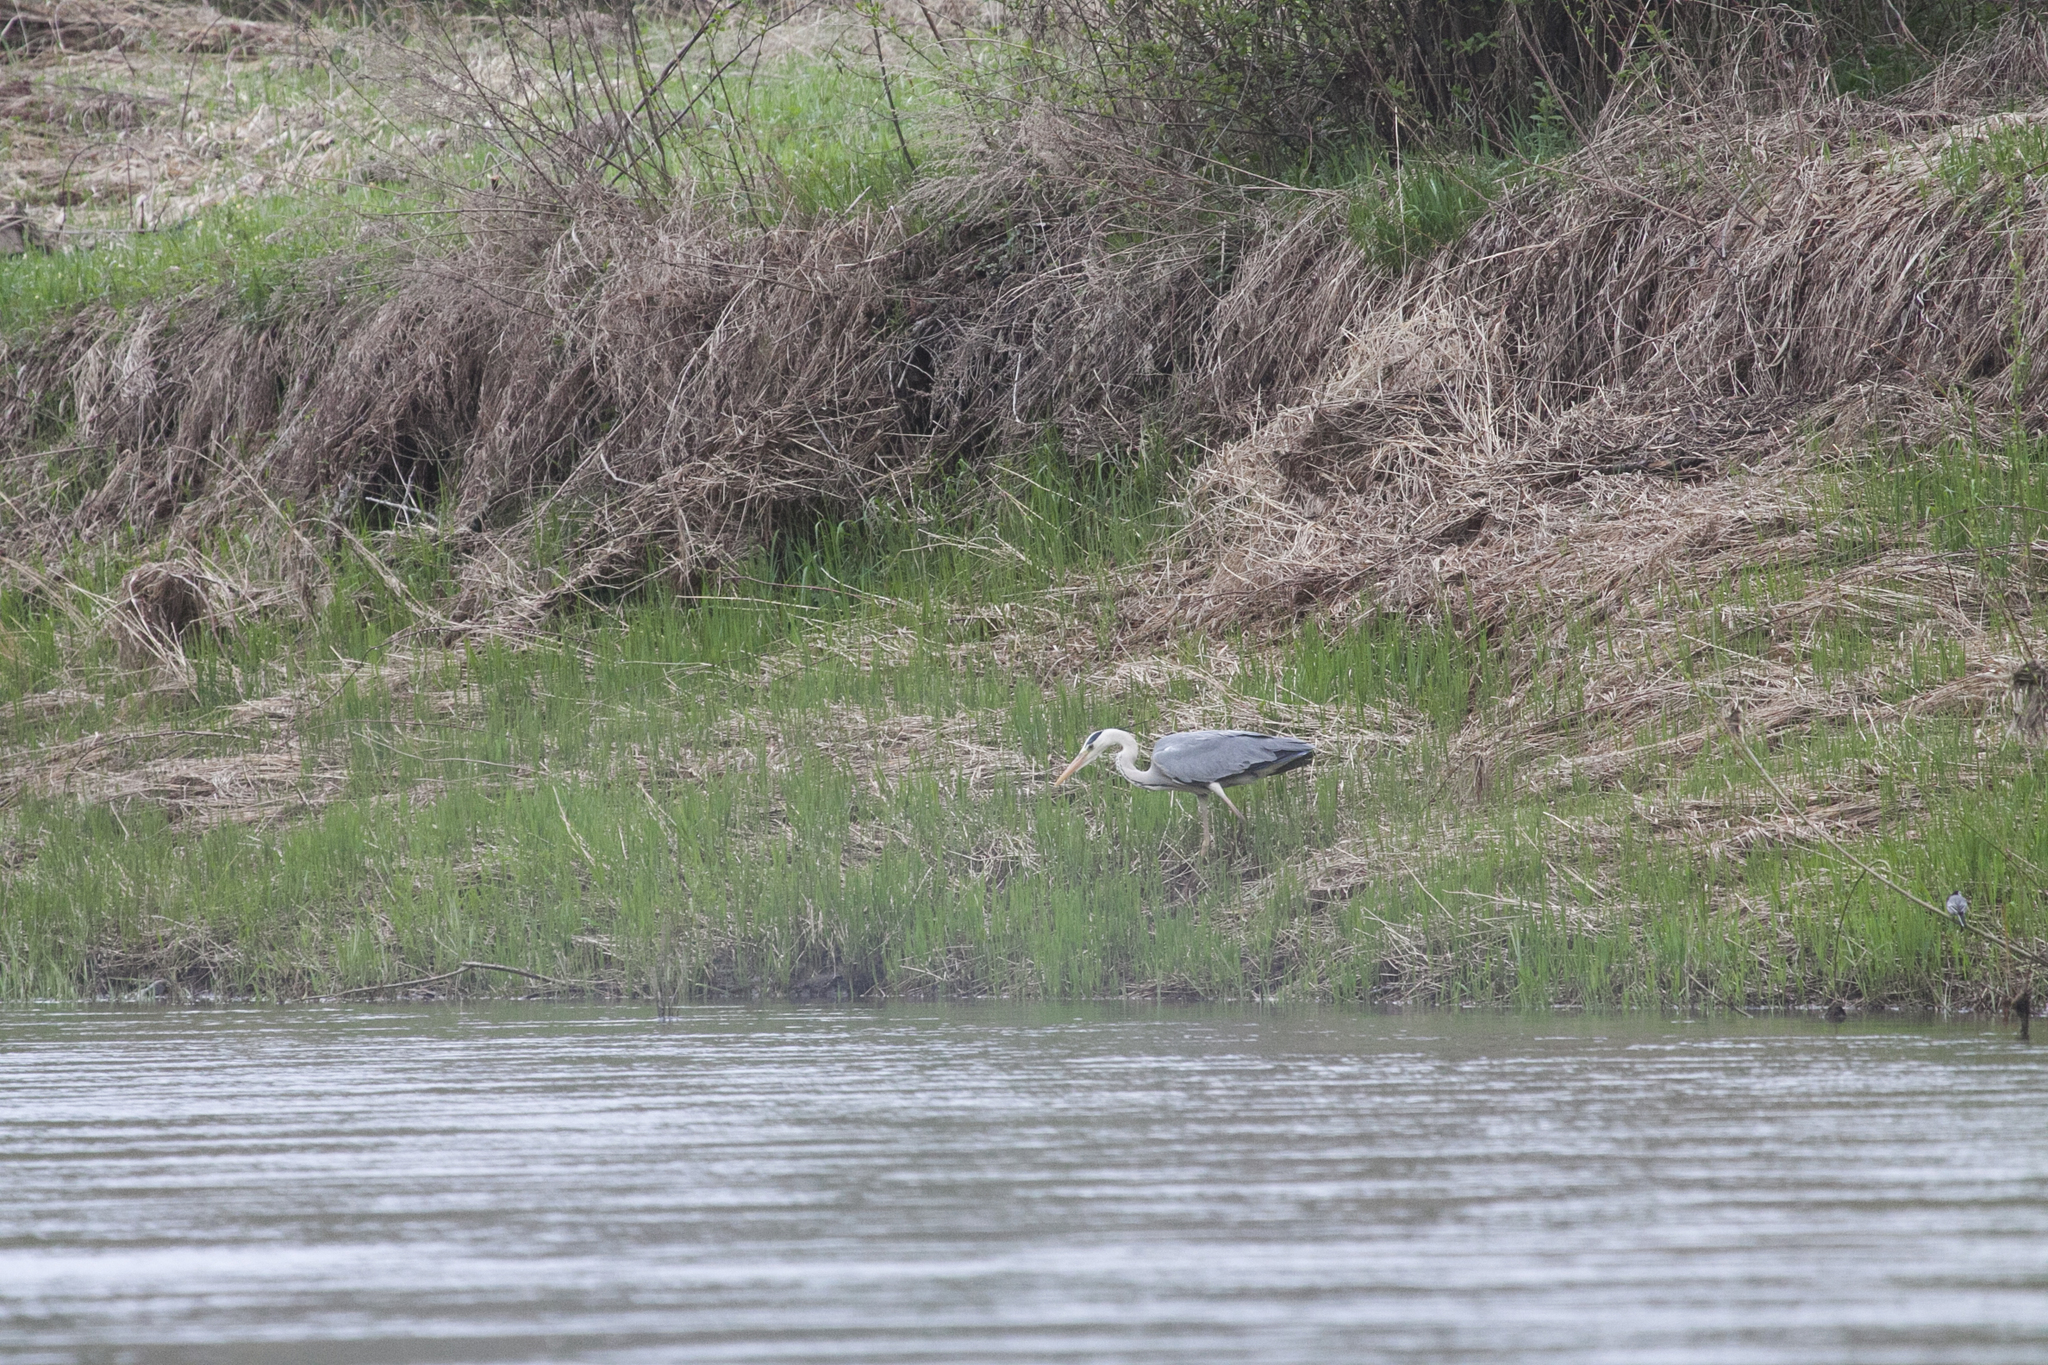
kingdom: Animalia
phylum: Chordata
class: Aves
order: Pelecaniformes
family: Ardeidae
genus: Ardea
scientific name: Ardea cinerea
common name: Grey heron
